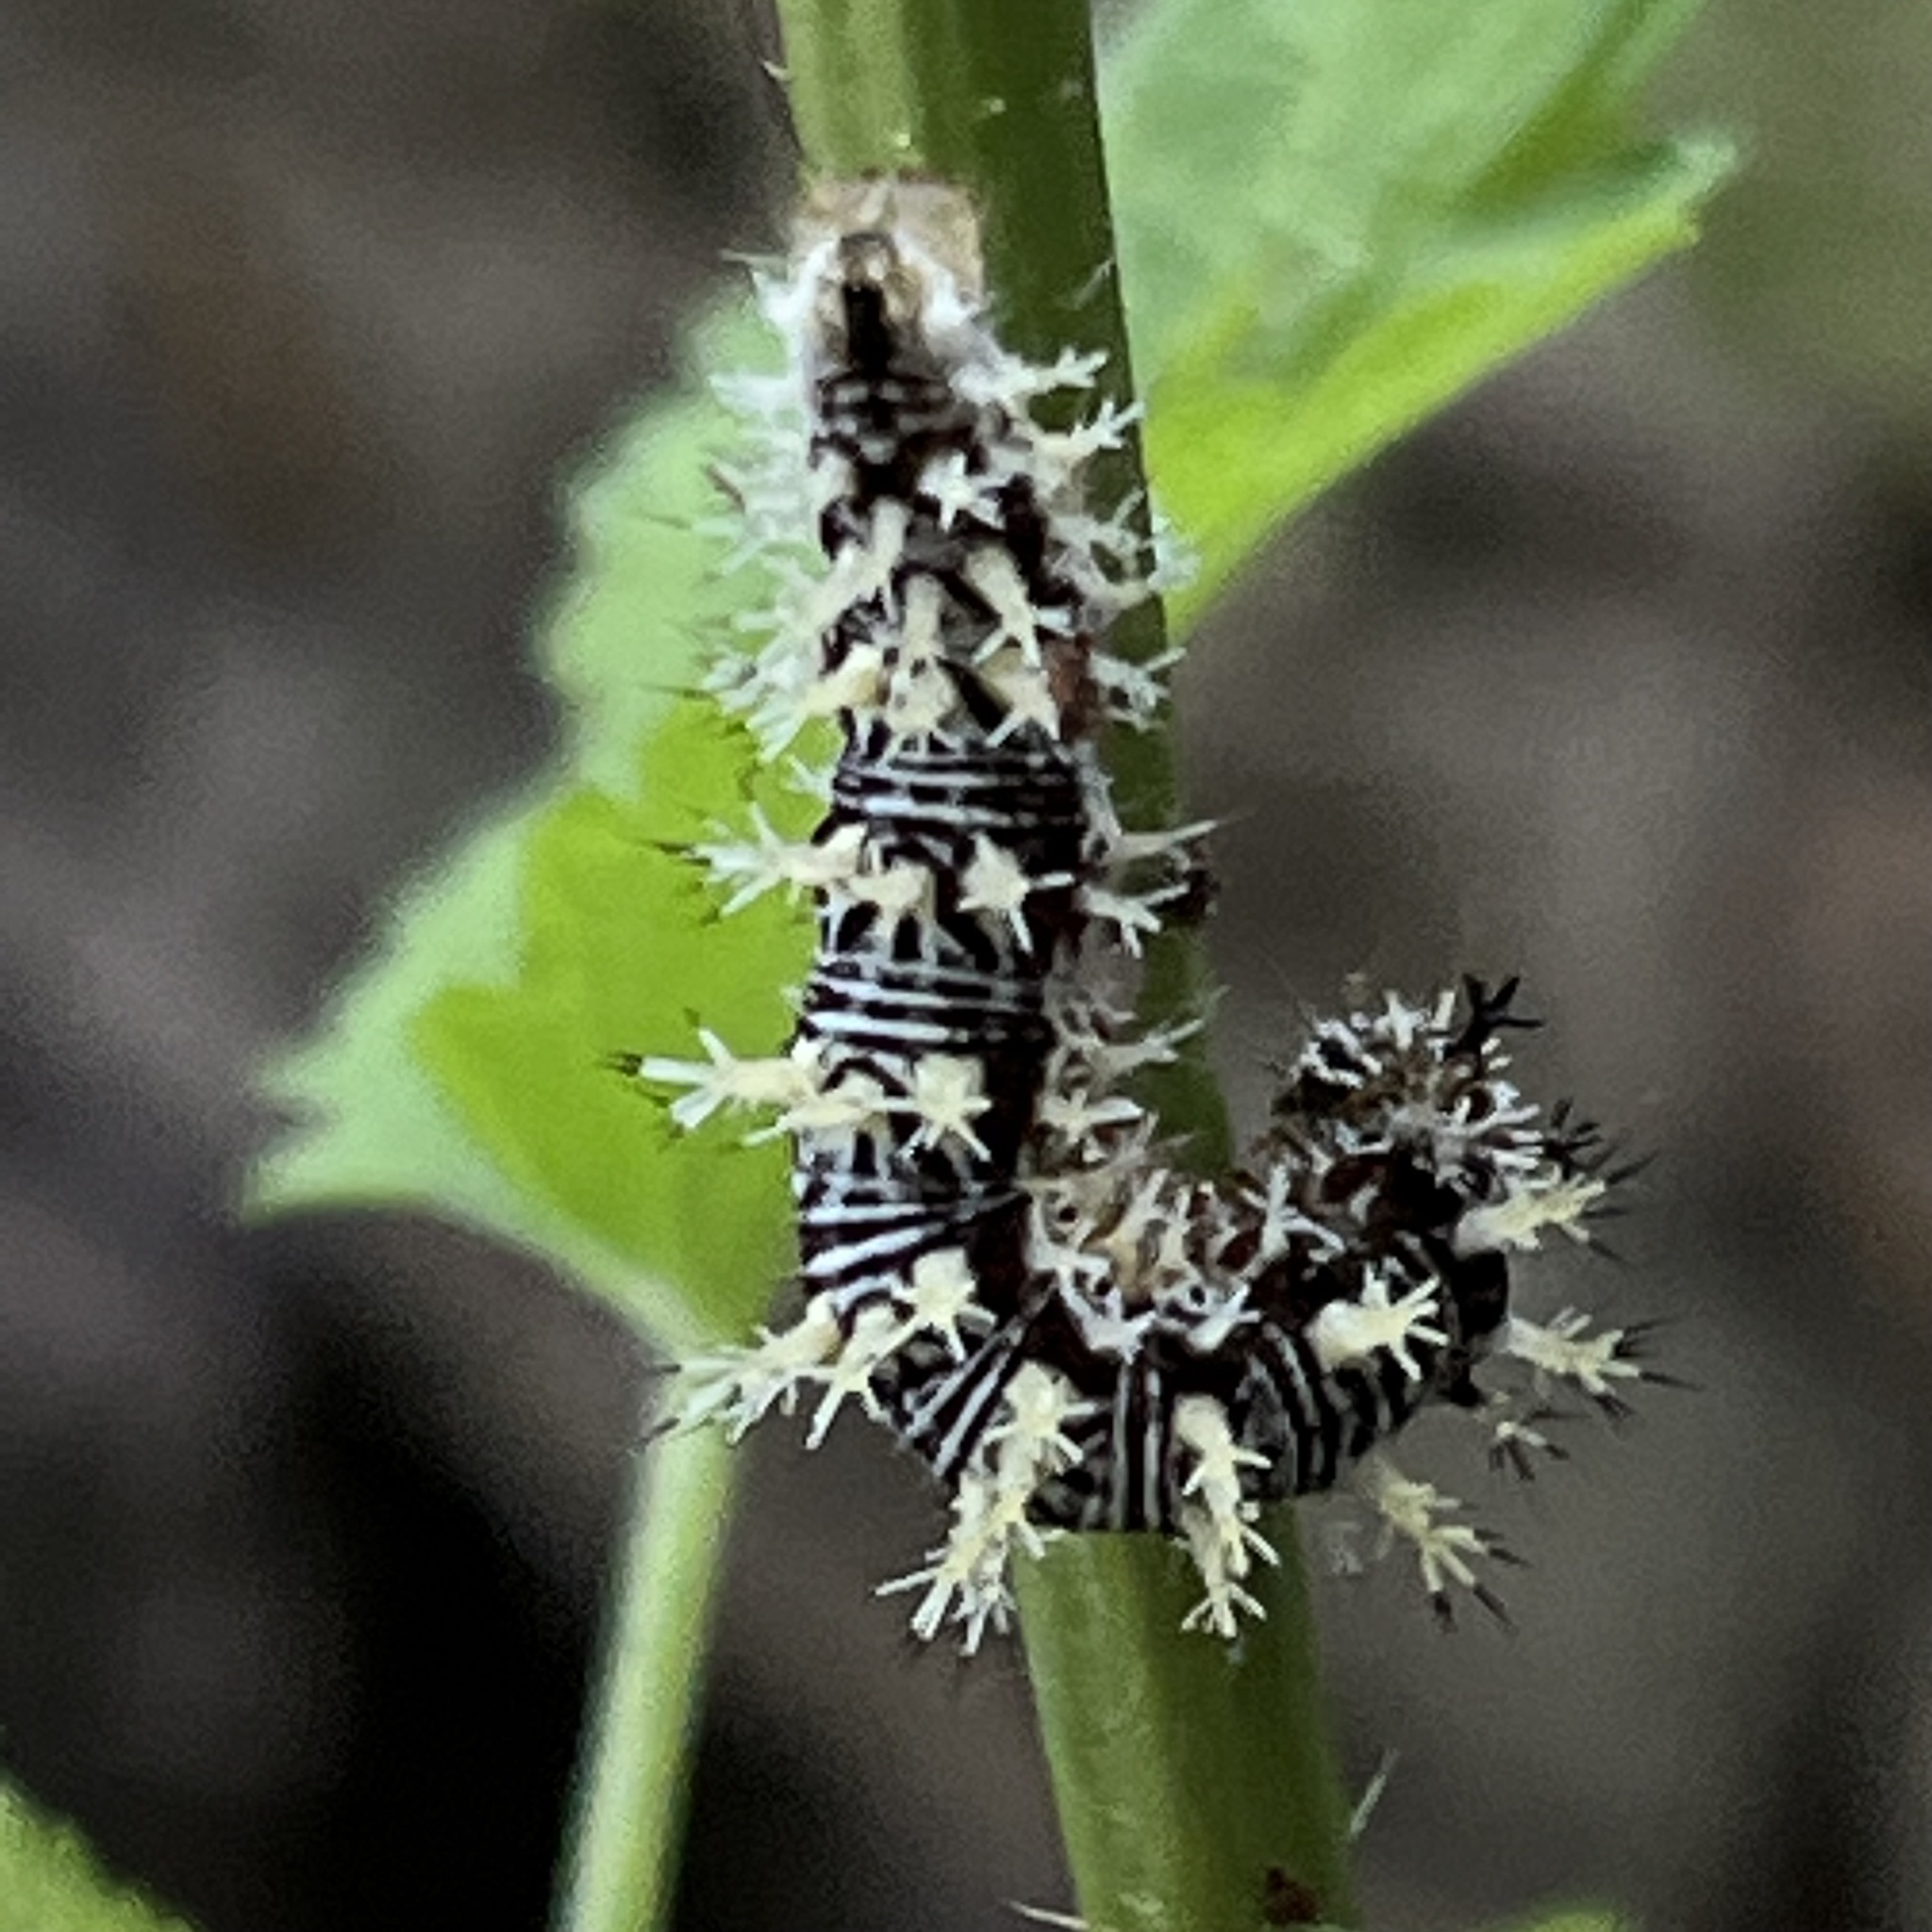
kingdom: Animalia
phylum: Arthropoda
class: Insecta
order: Lepidoptera
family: Nymphalidae
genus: Polygonia
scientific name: Polygonia comma
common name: Eastern comma
